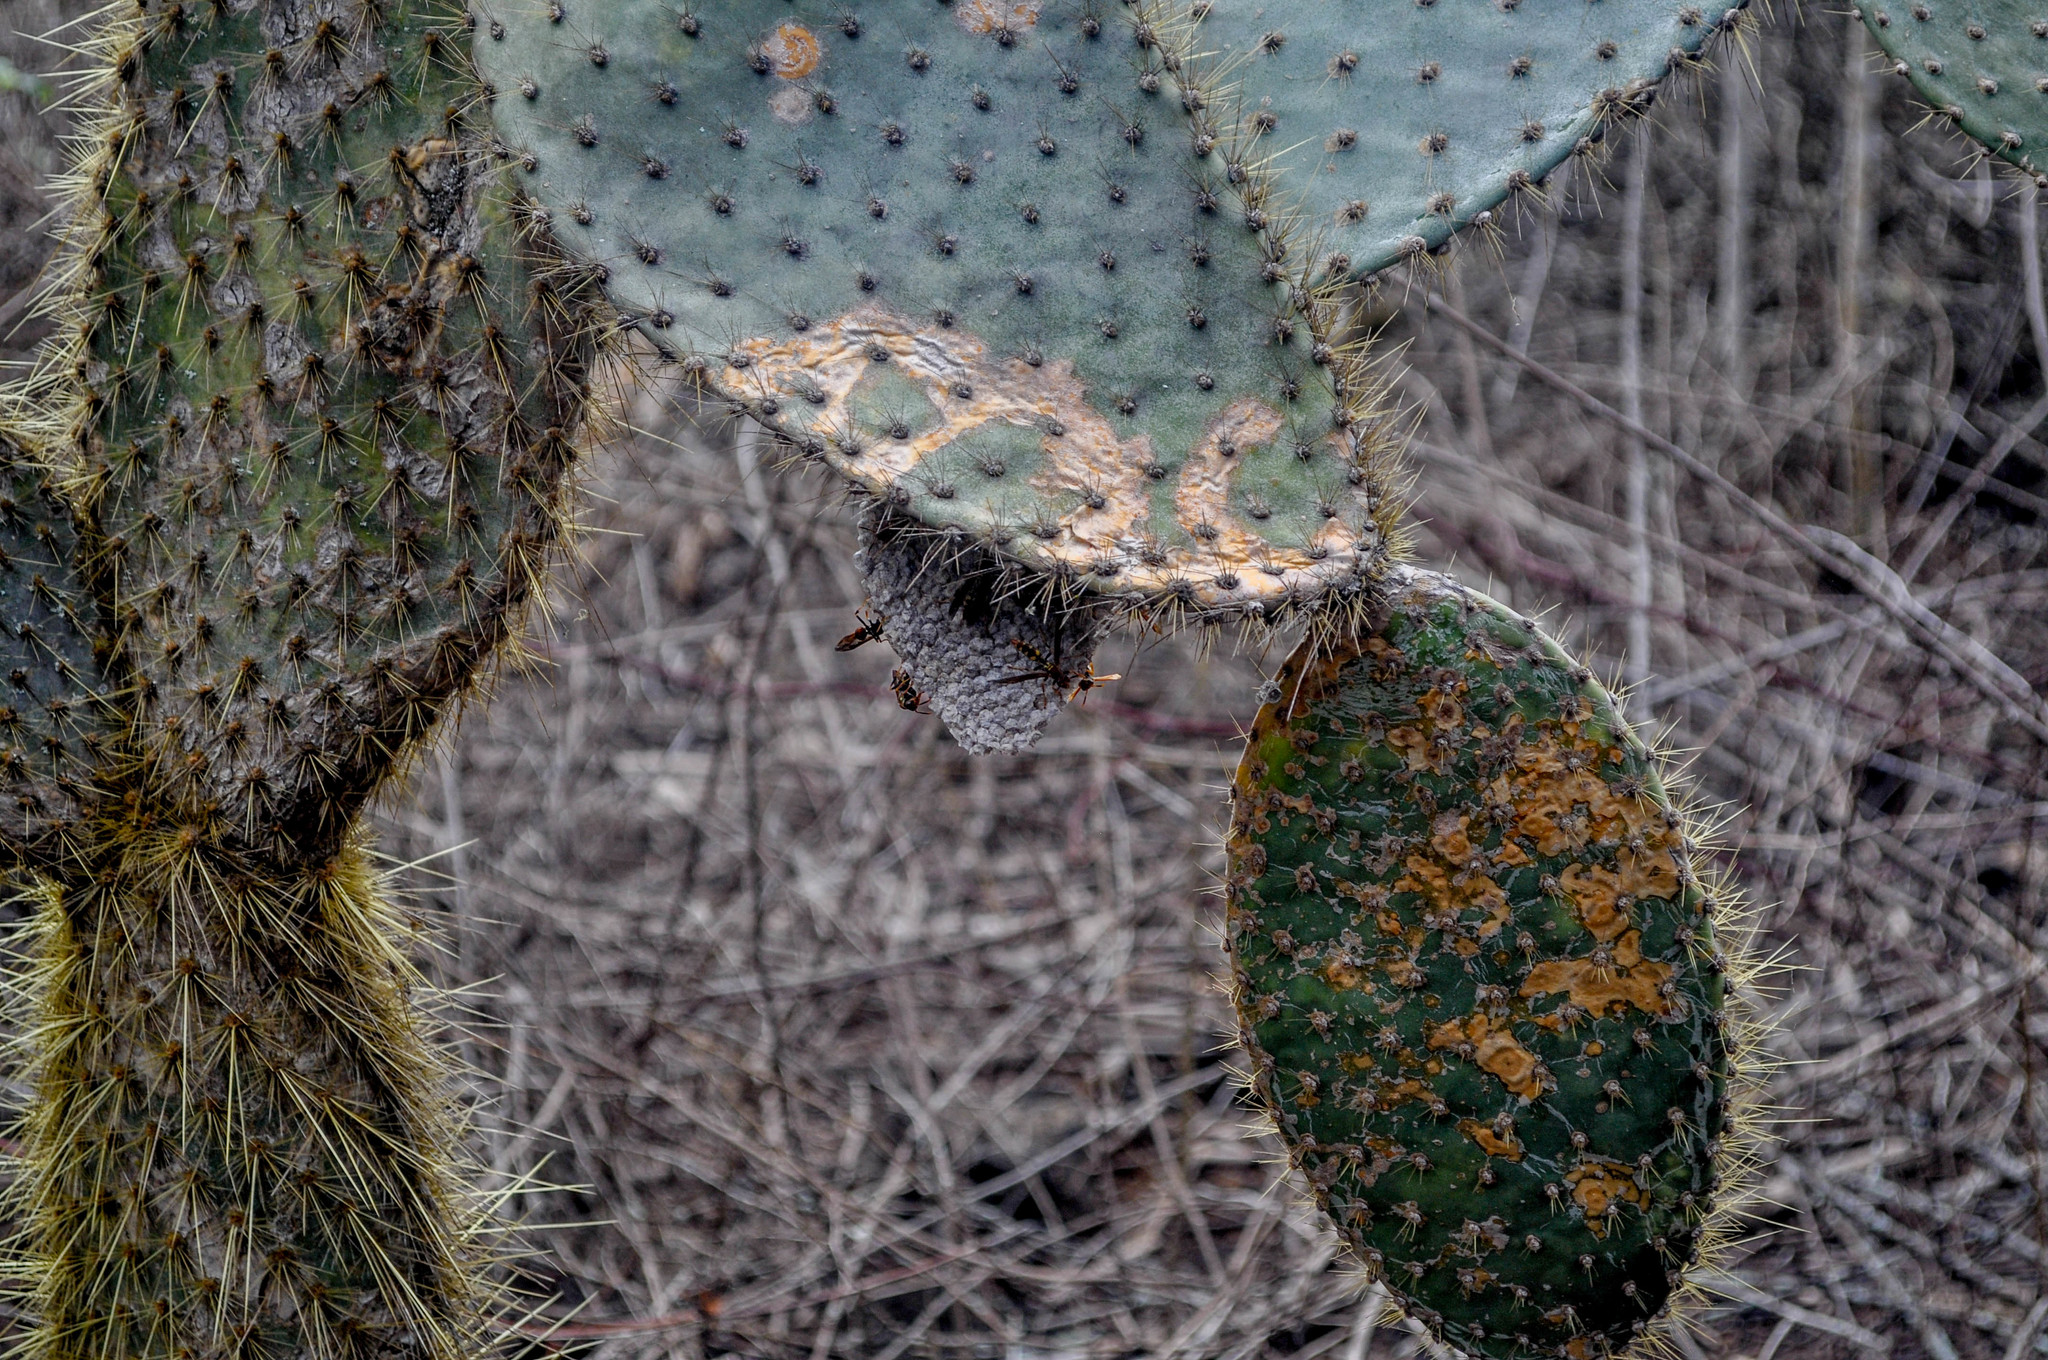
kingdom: Plantae
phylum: Tracheophyta
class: Magnoliopsida
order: Caryophyllales
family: Cactaceae
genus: Opuntia
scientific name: Opuntia galapageia
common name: Galápagos prickly pear
